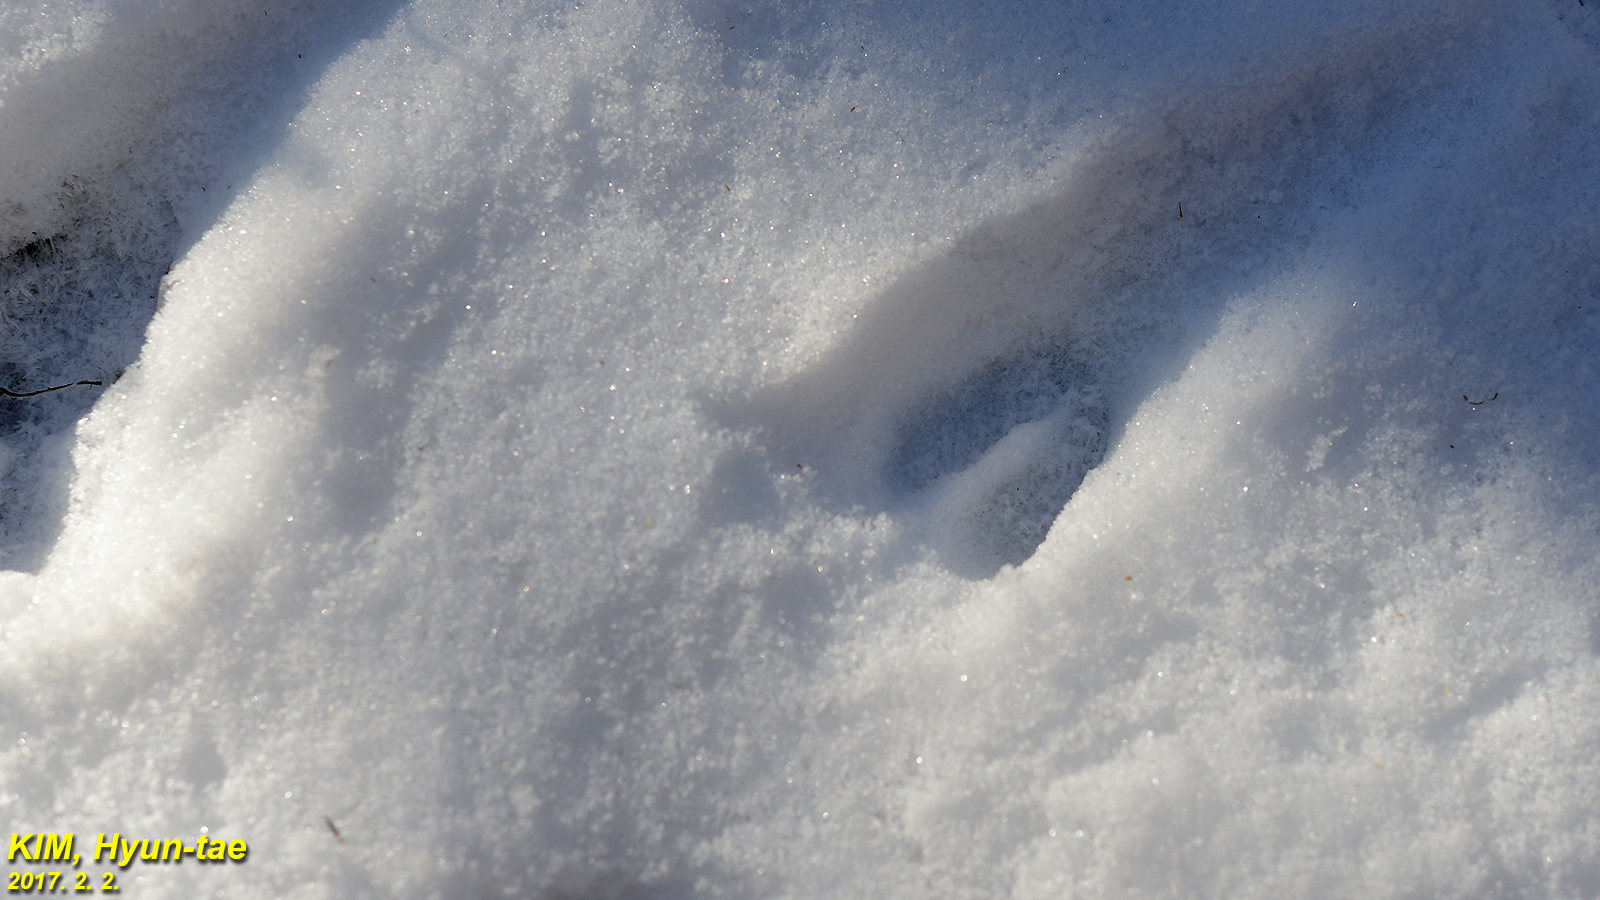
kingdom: Animalia
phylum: Chordata
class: Mammalia
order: Artiodactyla
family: Cervidae
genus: Hydropotes
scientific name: Hydropotes inermis
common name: Chinese water deer
